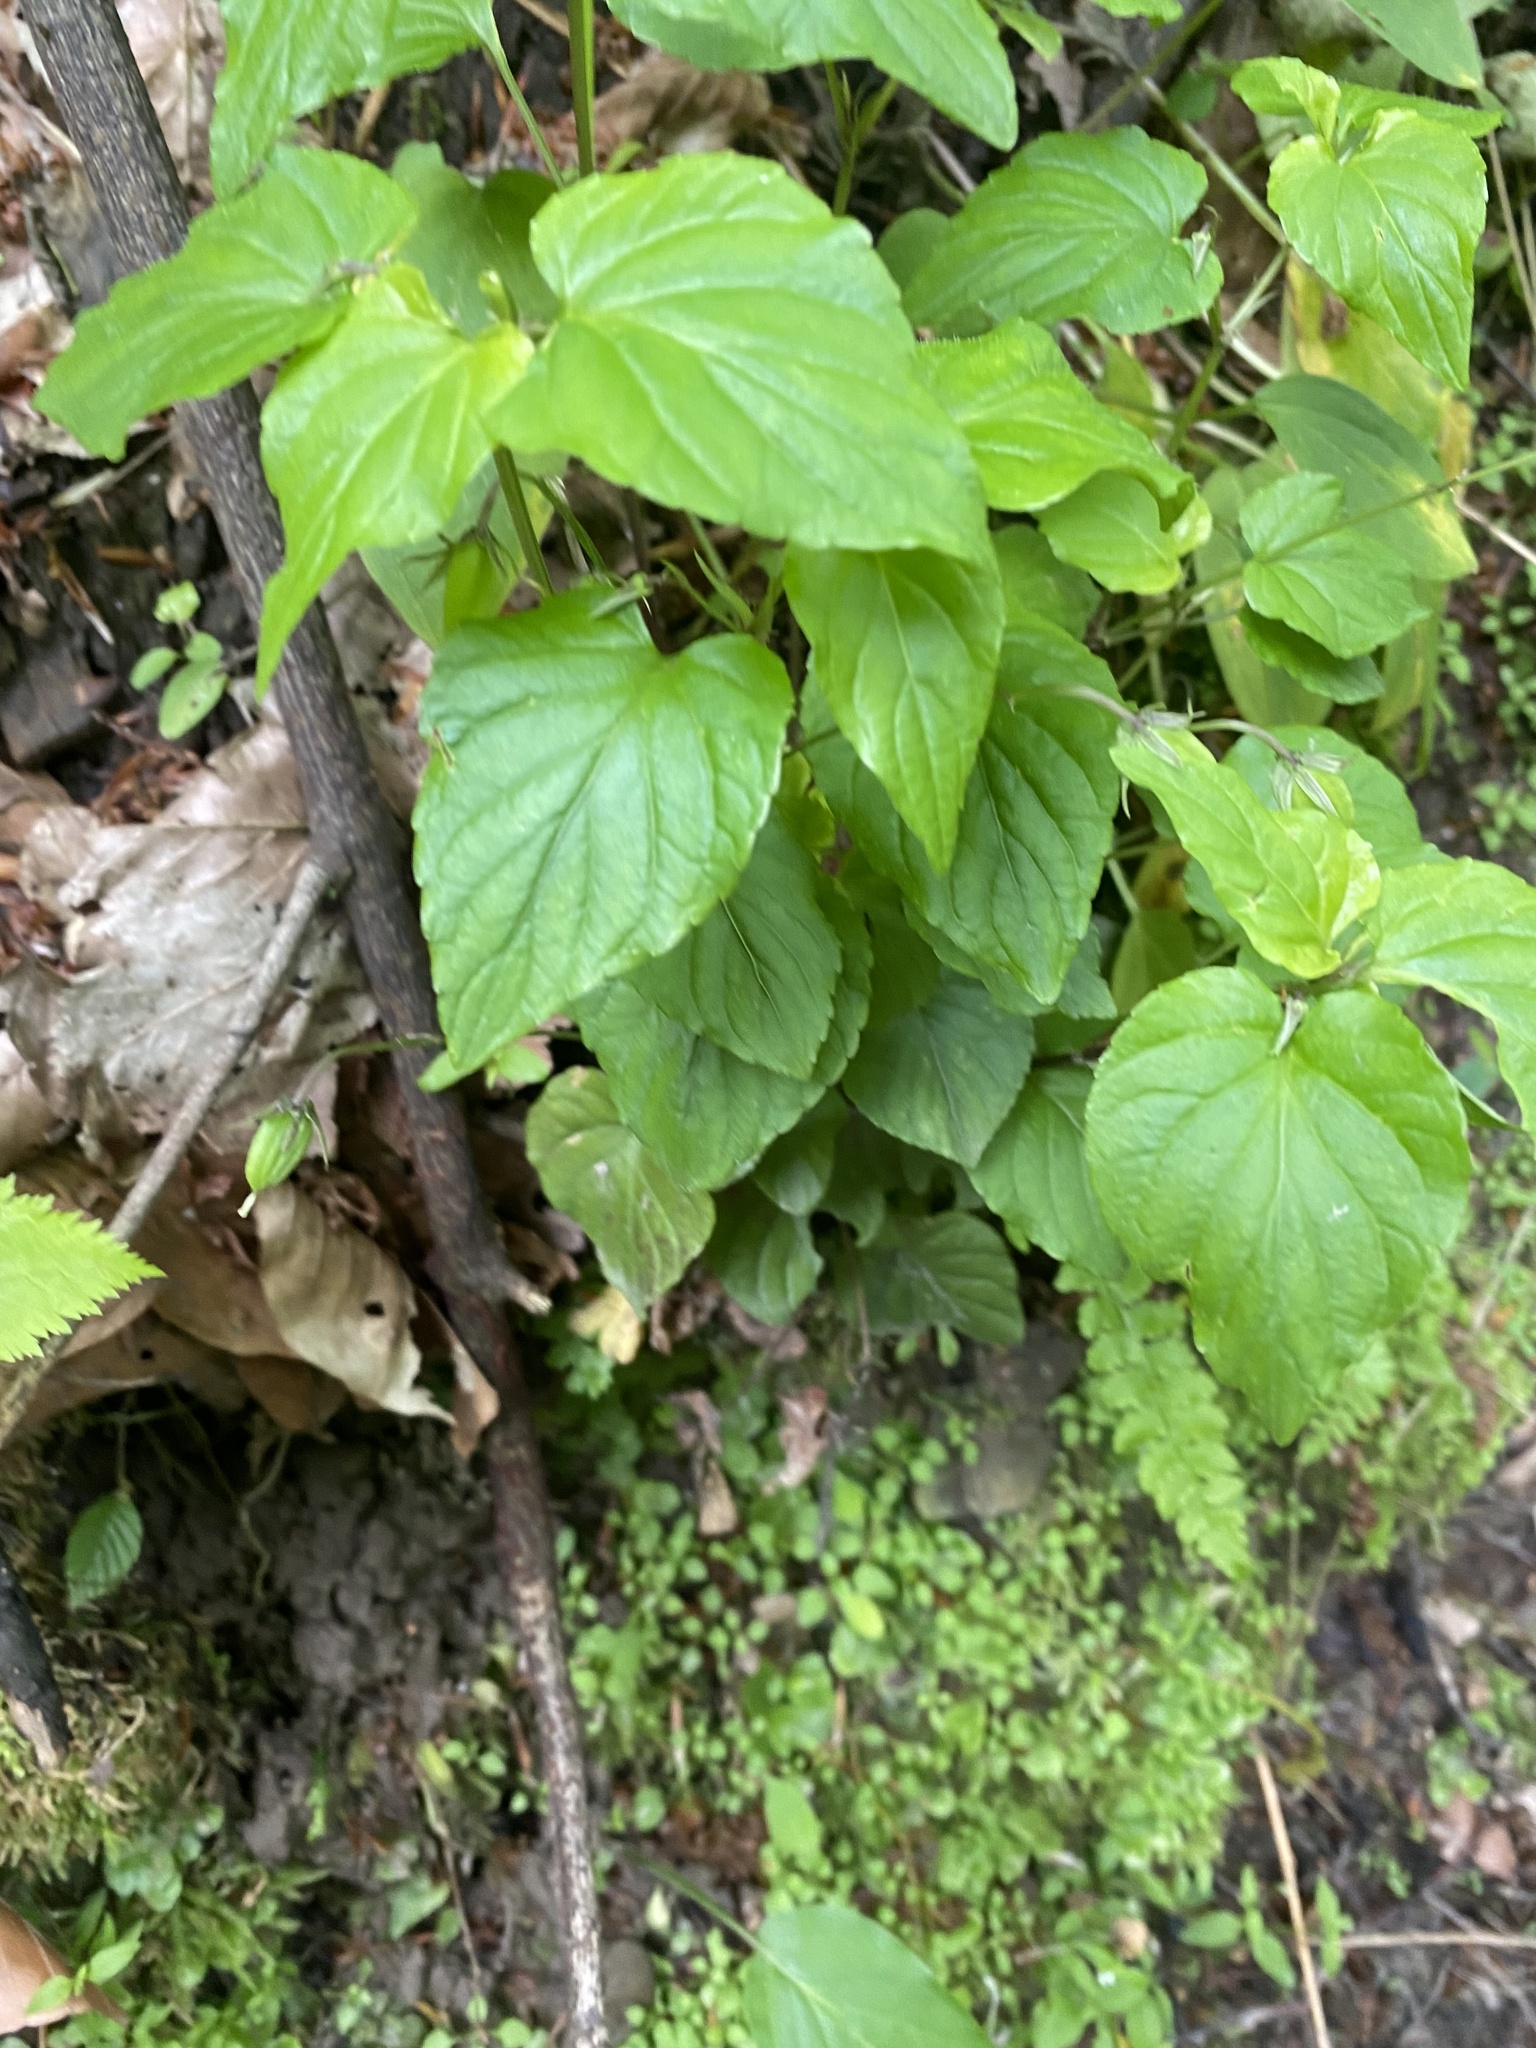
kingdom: Plantae
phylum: Tracheophyta
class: Magnoliopsida
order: Malpighiales
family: Violaceae
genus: Viola
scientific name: Viola reichenbachiana
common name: Early dog-violet
